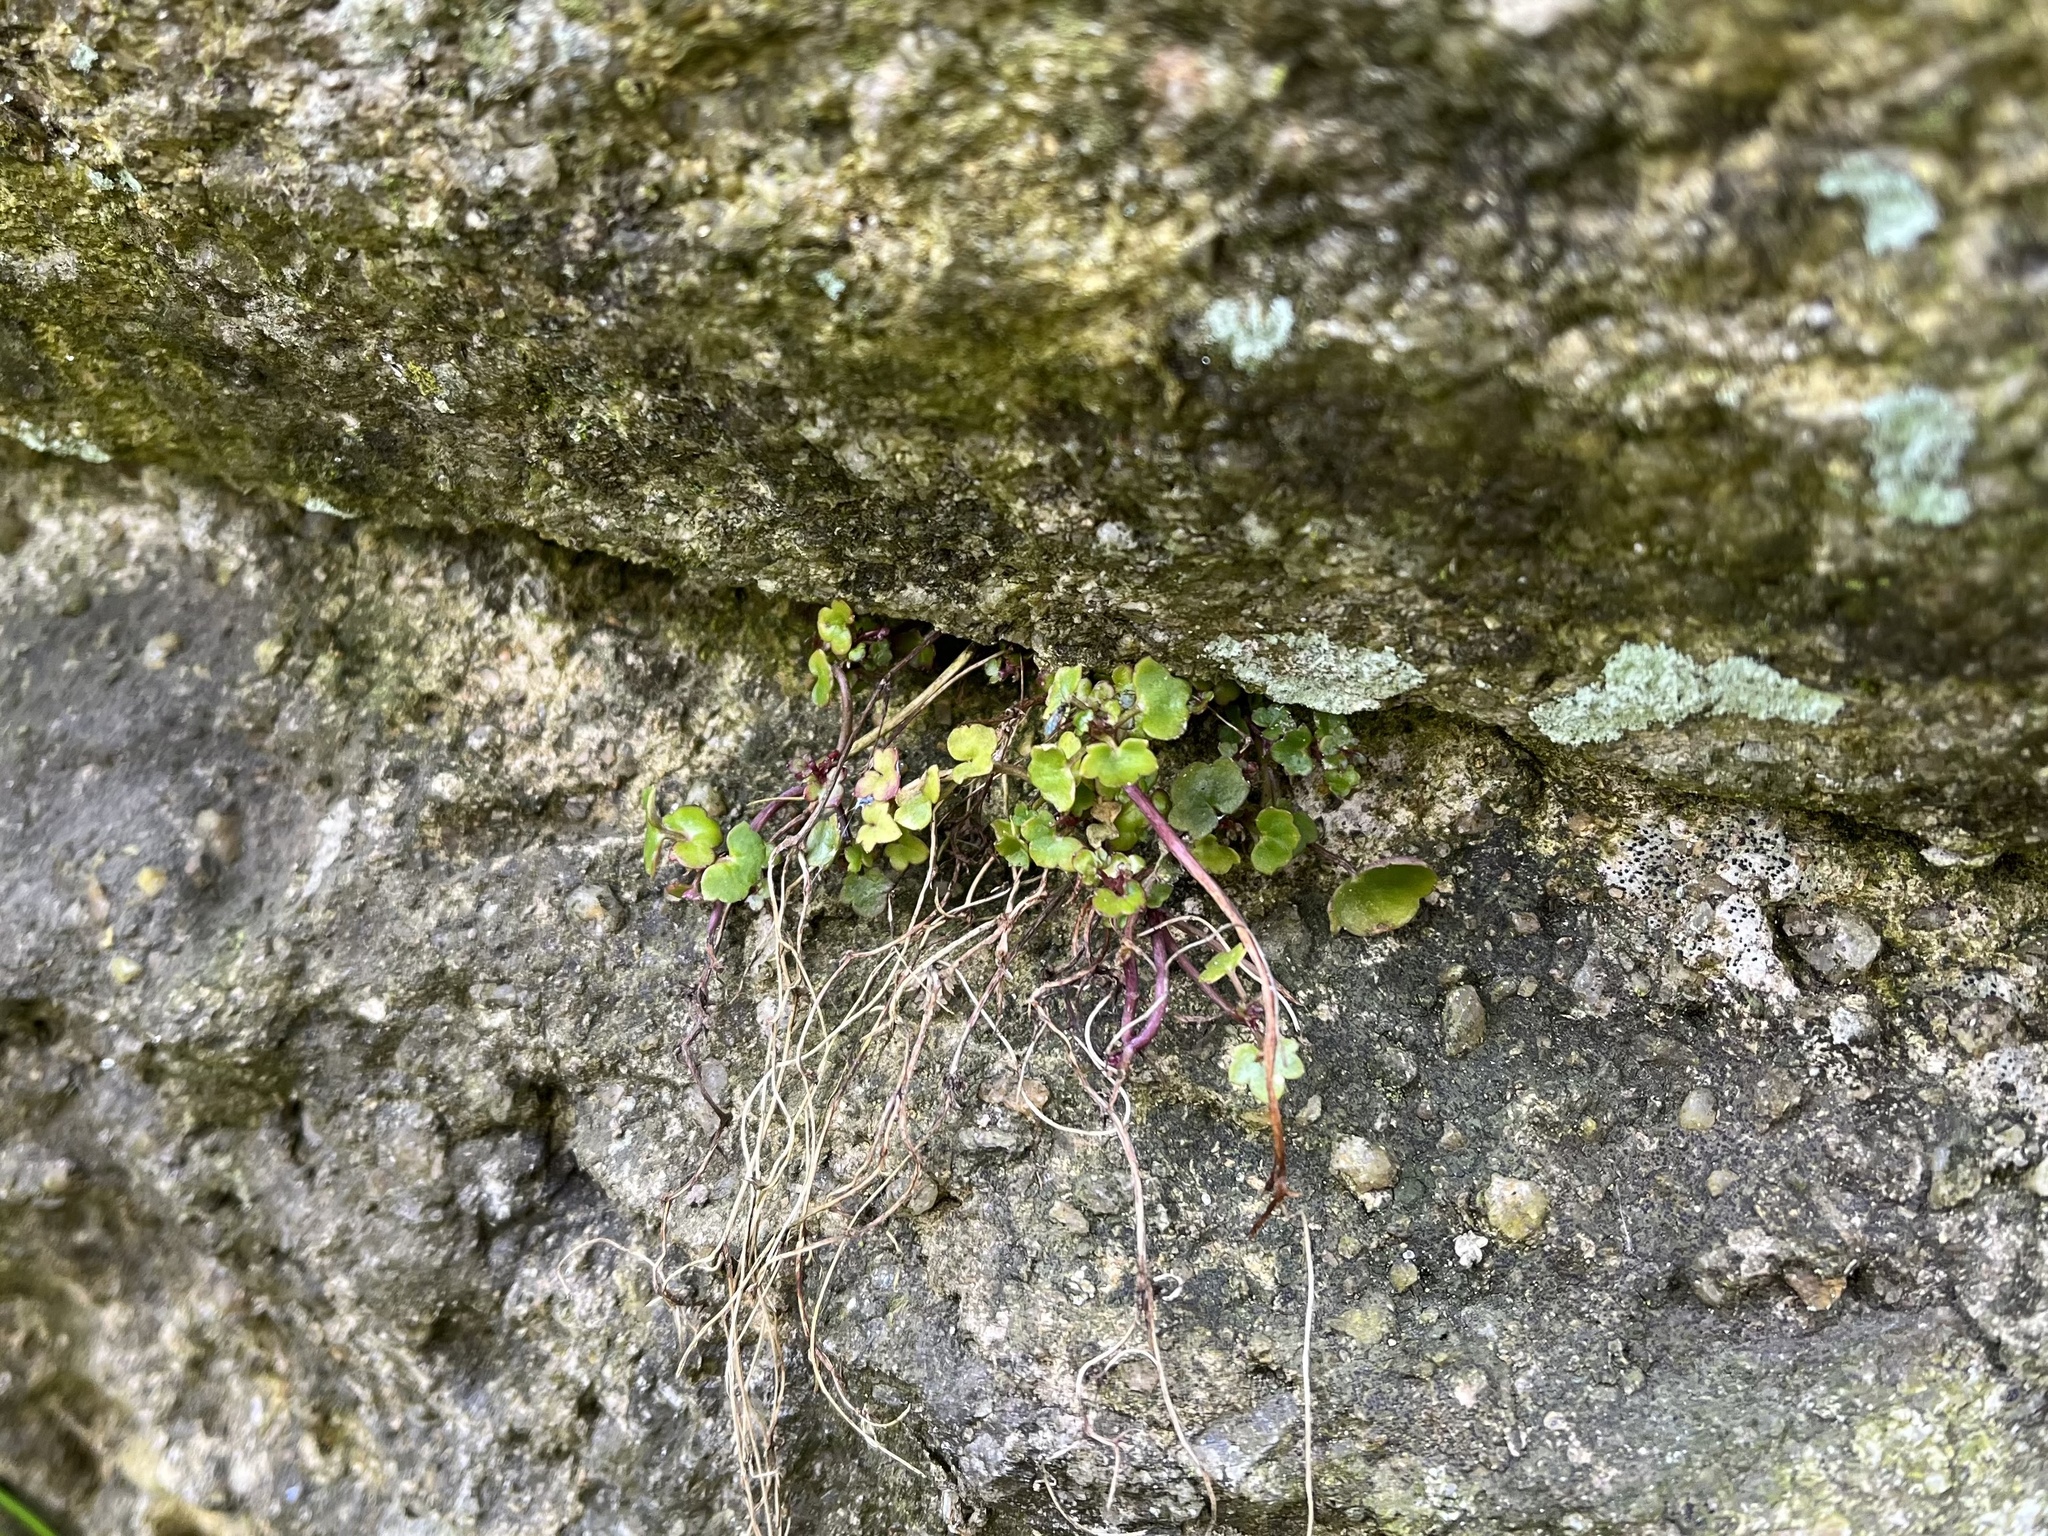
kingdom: Plantae
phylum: Tracheophyta
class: Magnoliopsida
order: Lamiales
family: Plantaginaceae
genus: Cymbalaria
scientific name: Cymbalaria muralis
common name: Ivy-leaved toadflax
